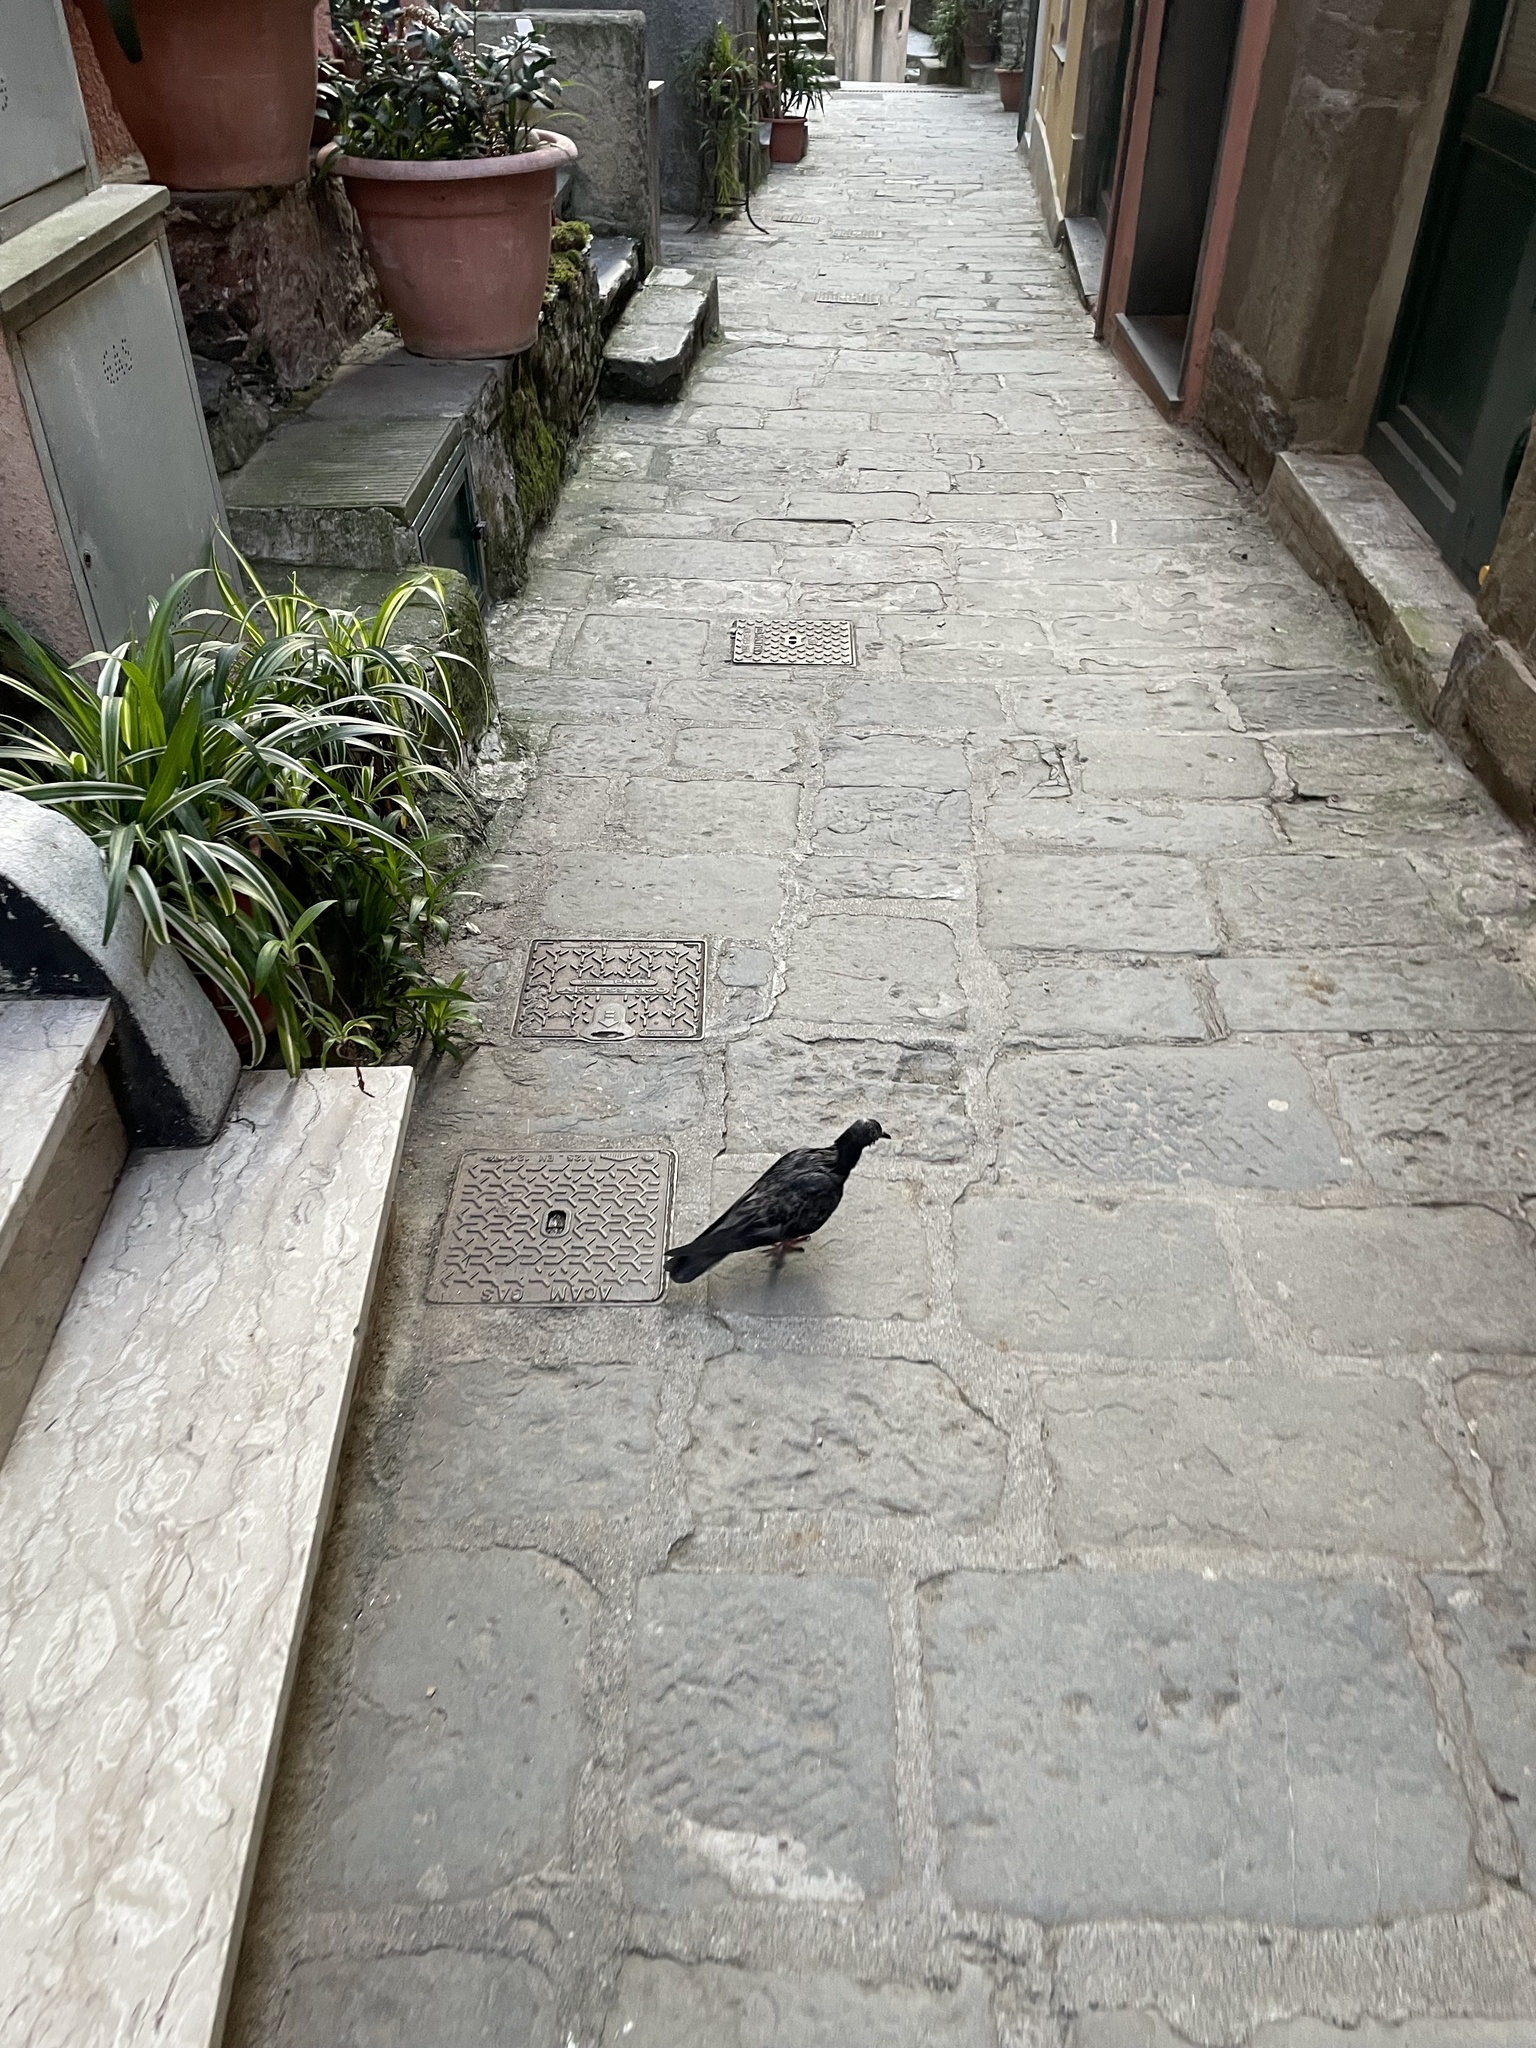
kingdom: Animalia
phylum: Chordata
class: Aves
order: Columbiformes
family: Columbidae
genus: Columba
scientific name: Columba livia
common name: Rock pigeon
